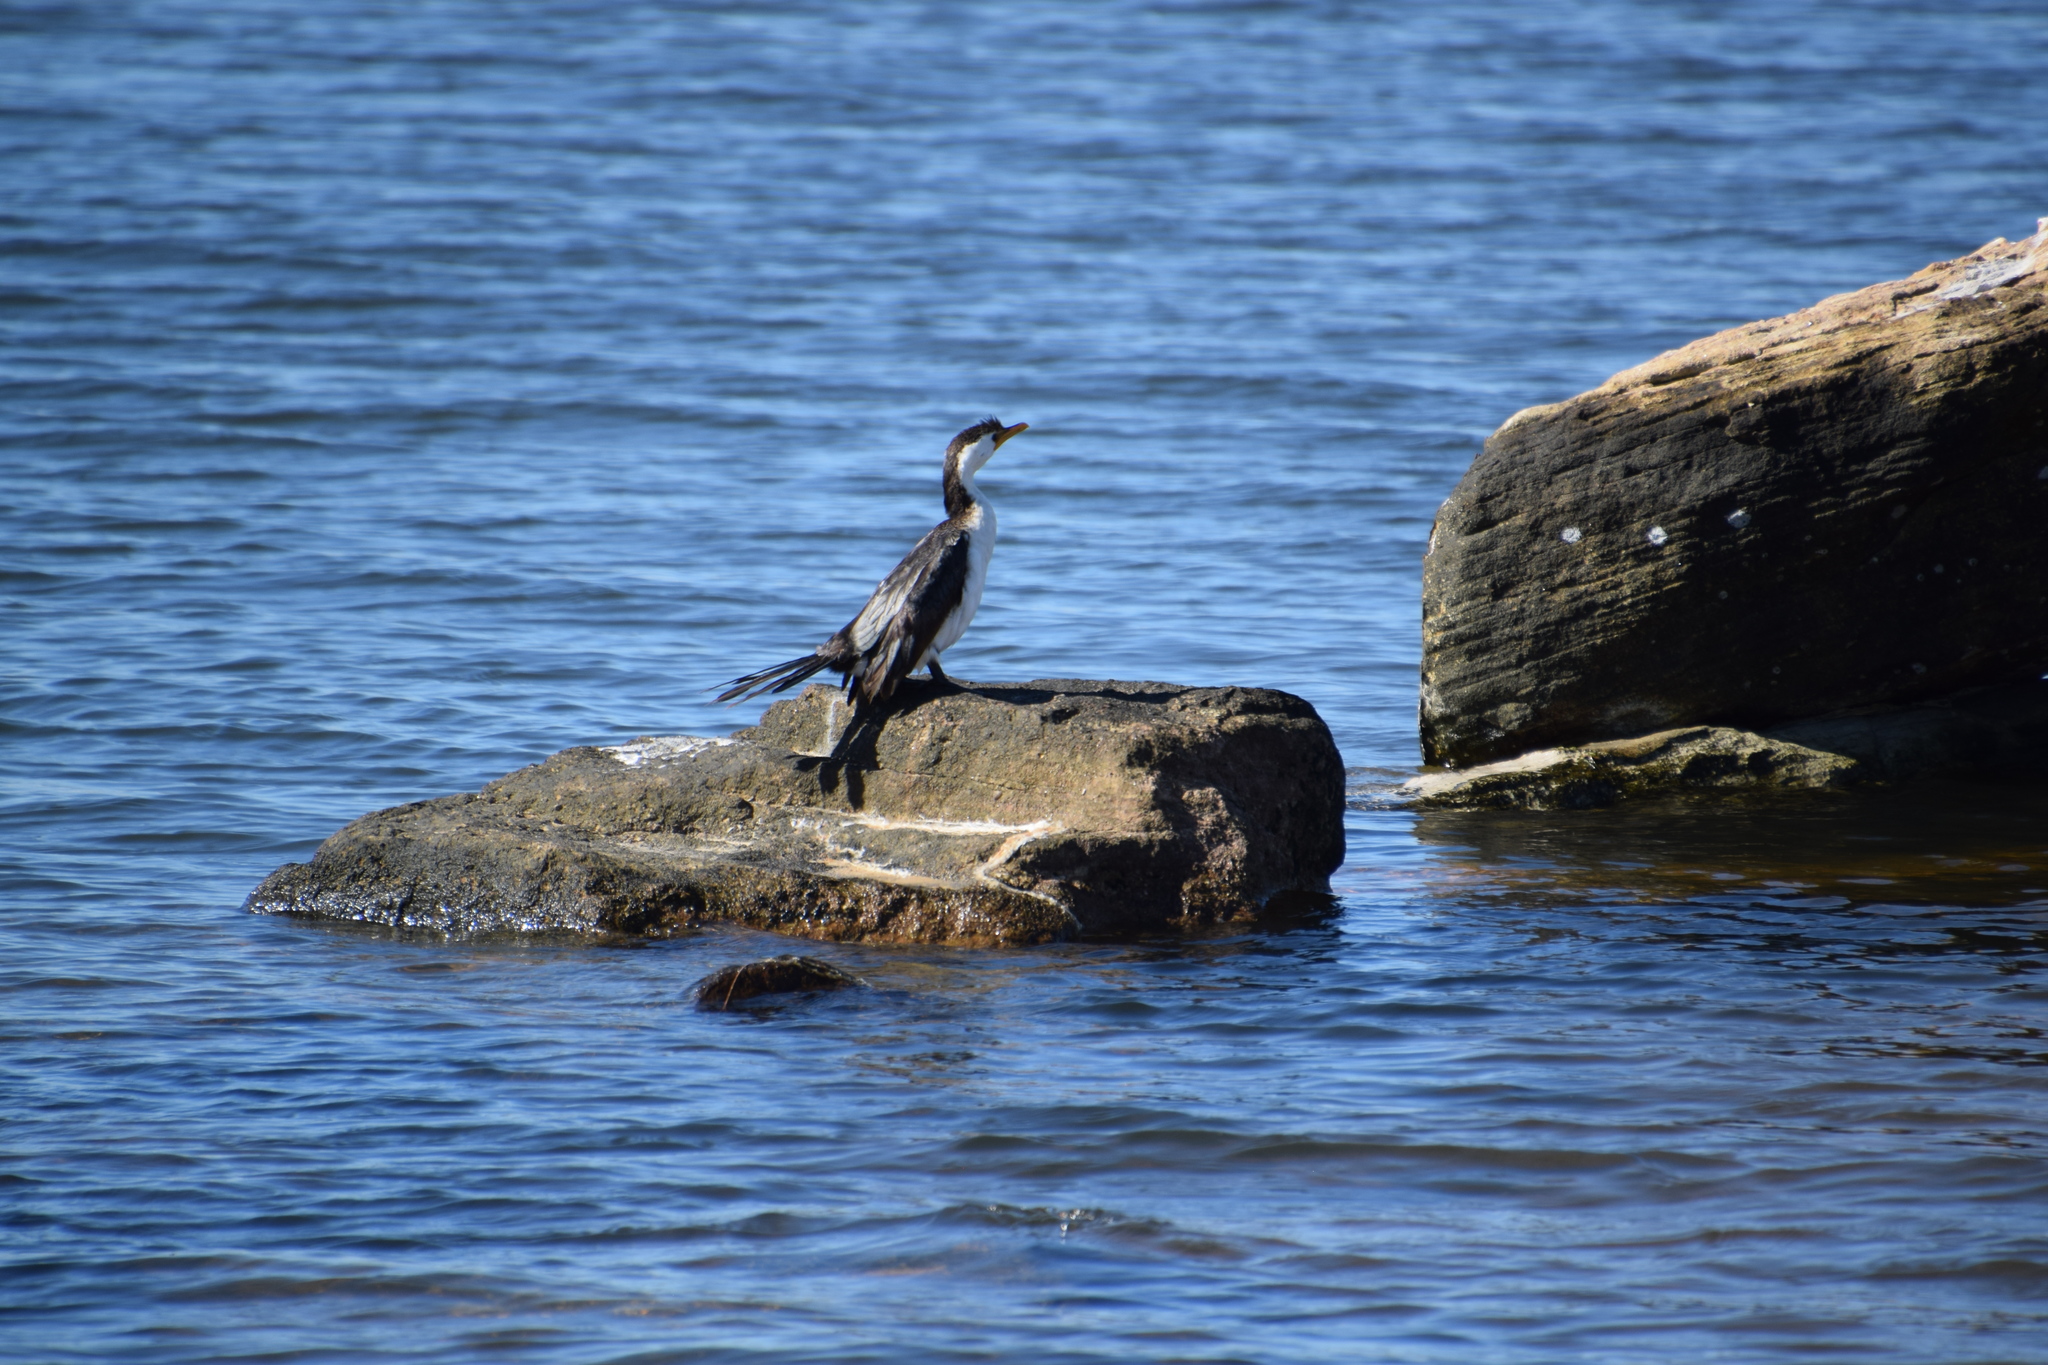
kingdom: Animalia
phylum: Chordata
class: Aves
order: Suliformes
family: Phalacrocoracidae
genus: Microcarbo
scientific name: Microcarbo melanoleucos
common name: Little pied cormorant
